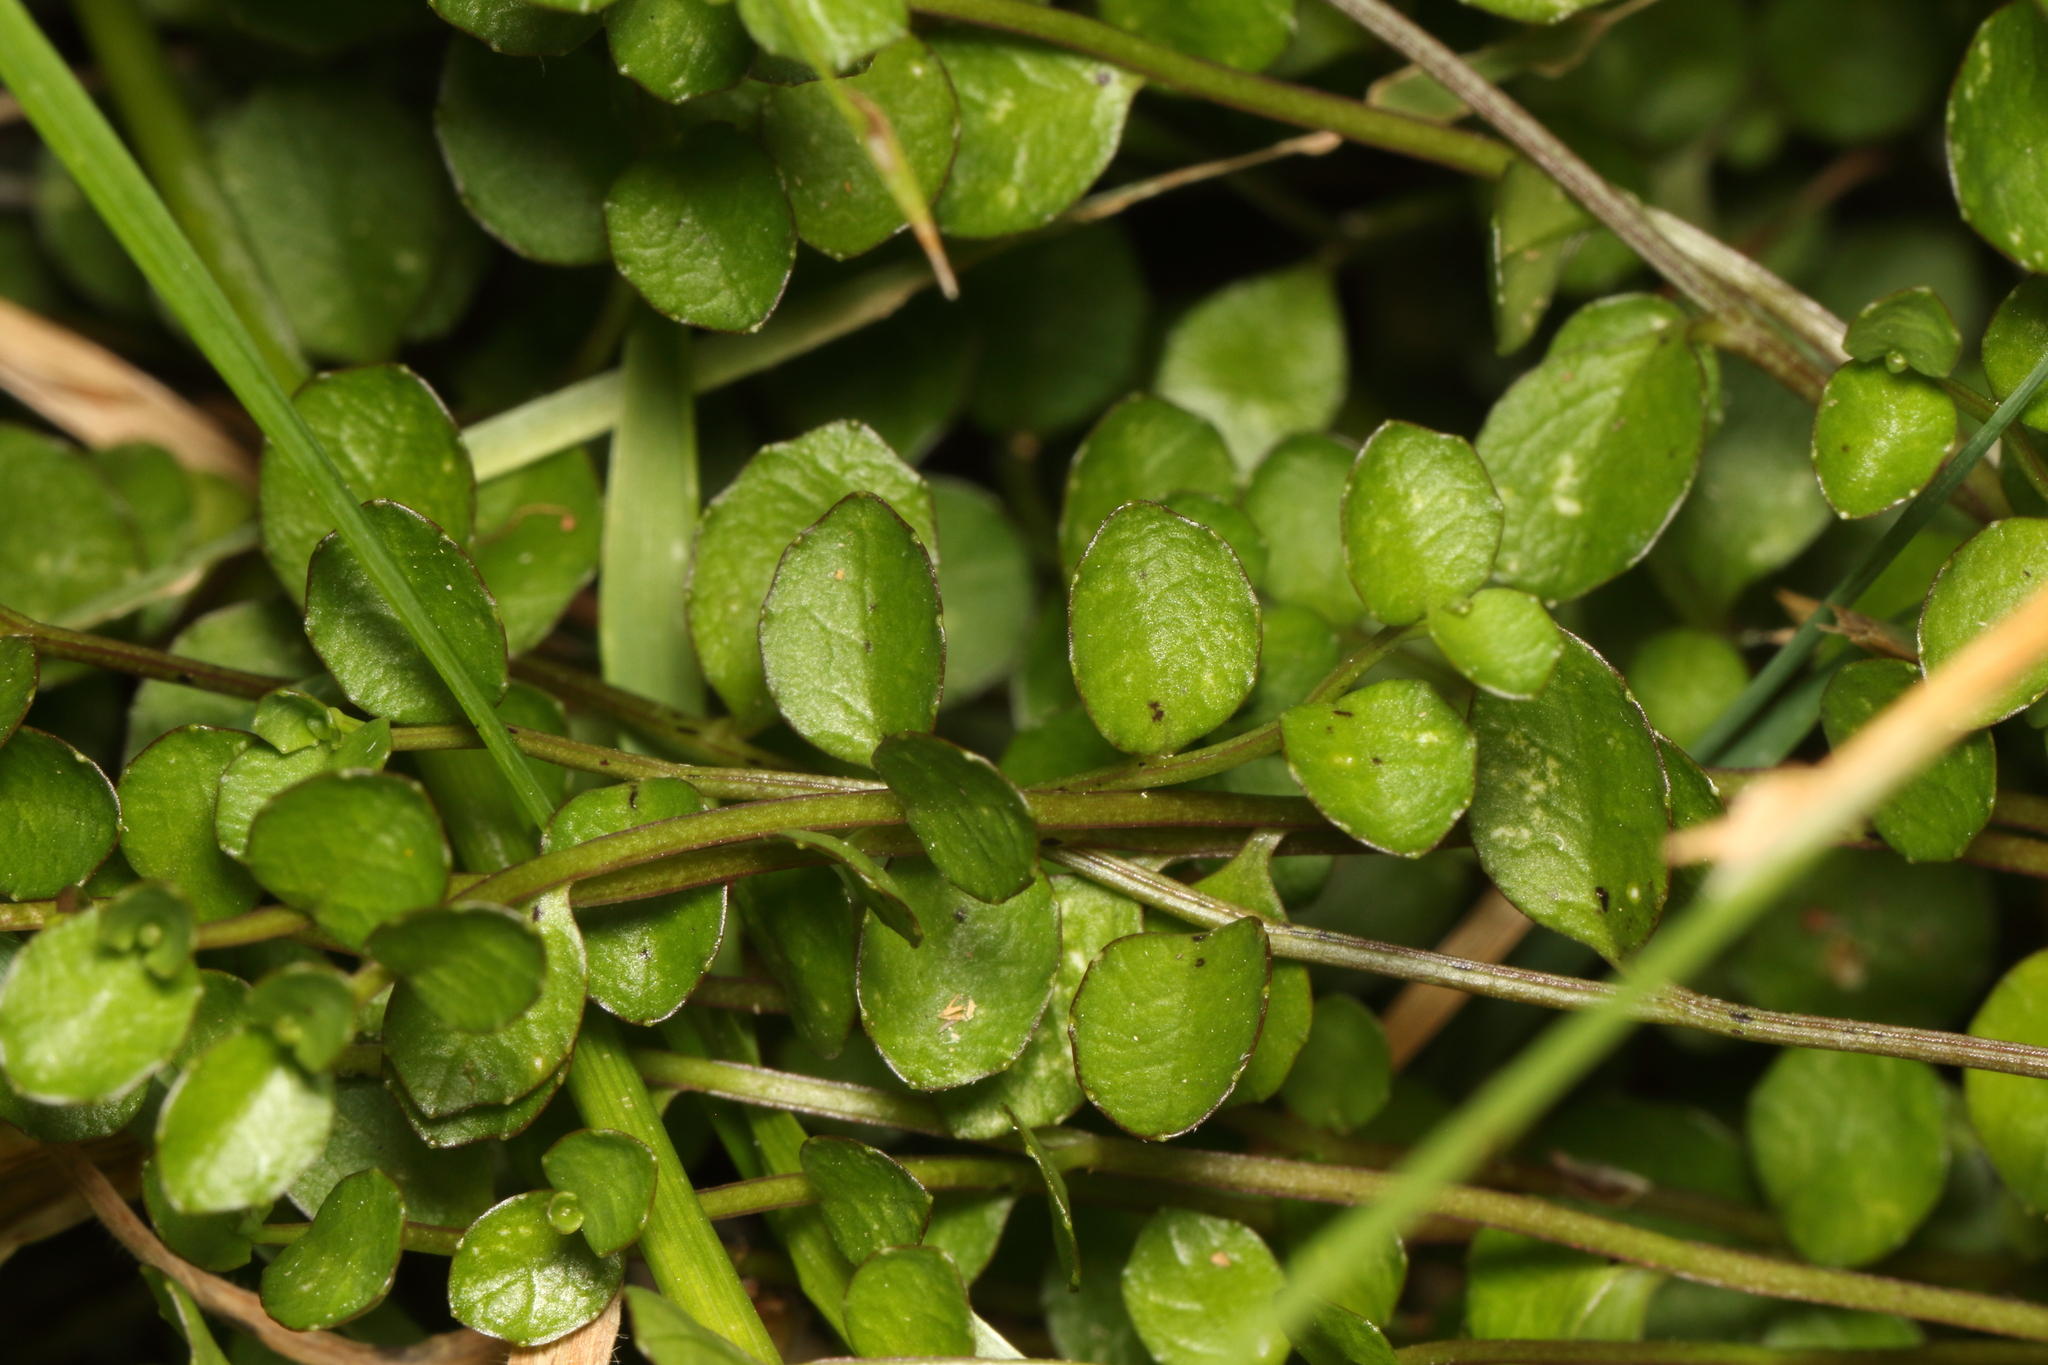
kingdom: Plantae
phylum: Tracheophyta
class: Magnoliopsida
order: Asterales
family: Campanulaceae
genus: Lobelia
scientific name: Lobelia angulata
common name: Lawn lobelia
